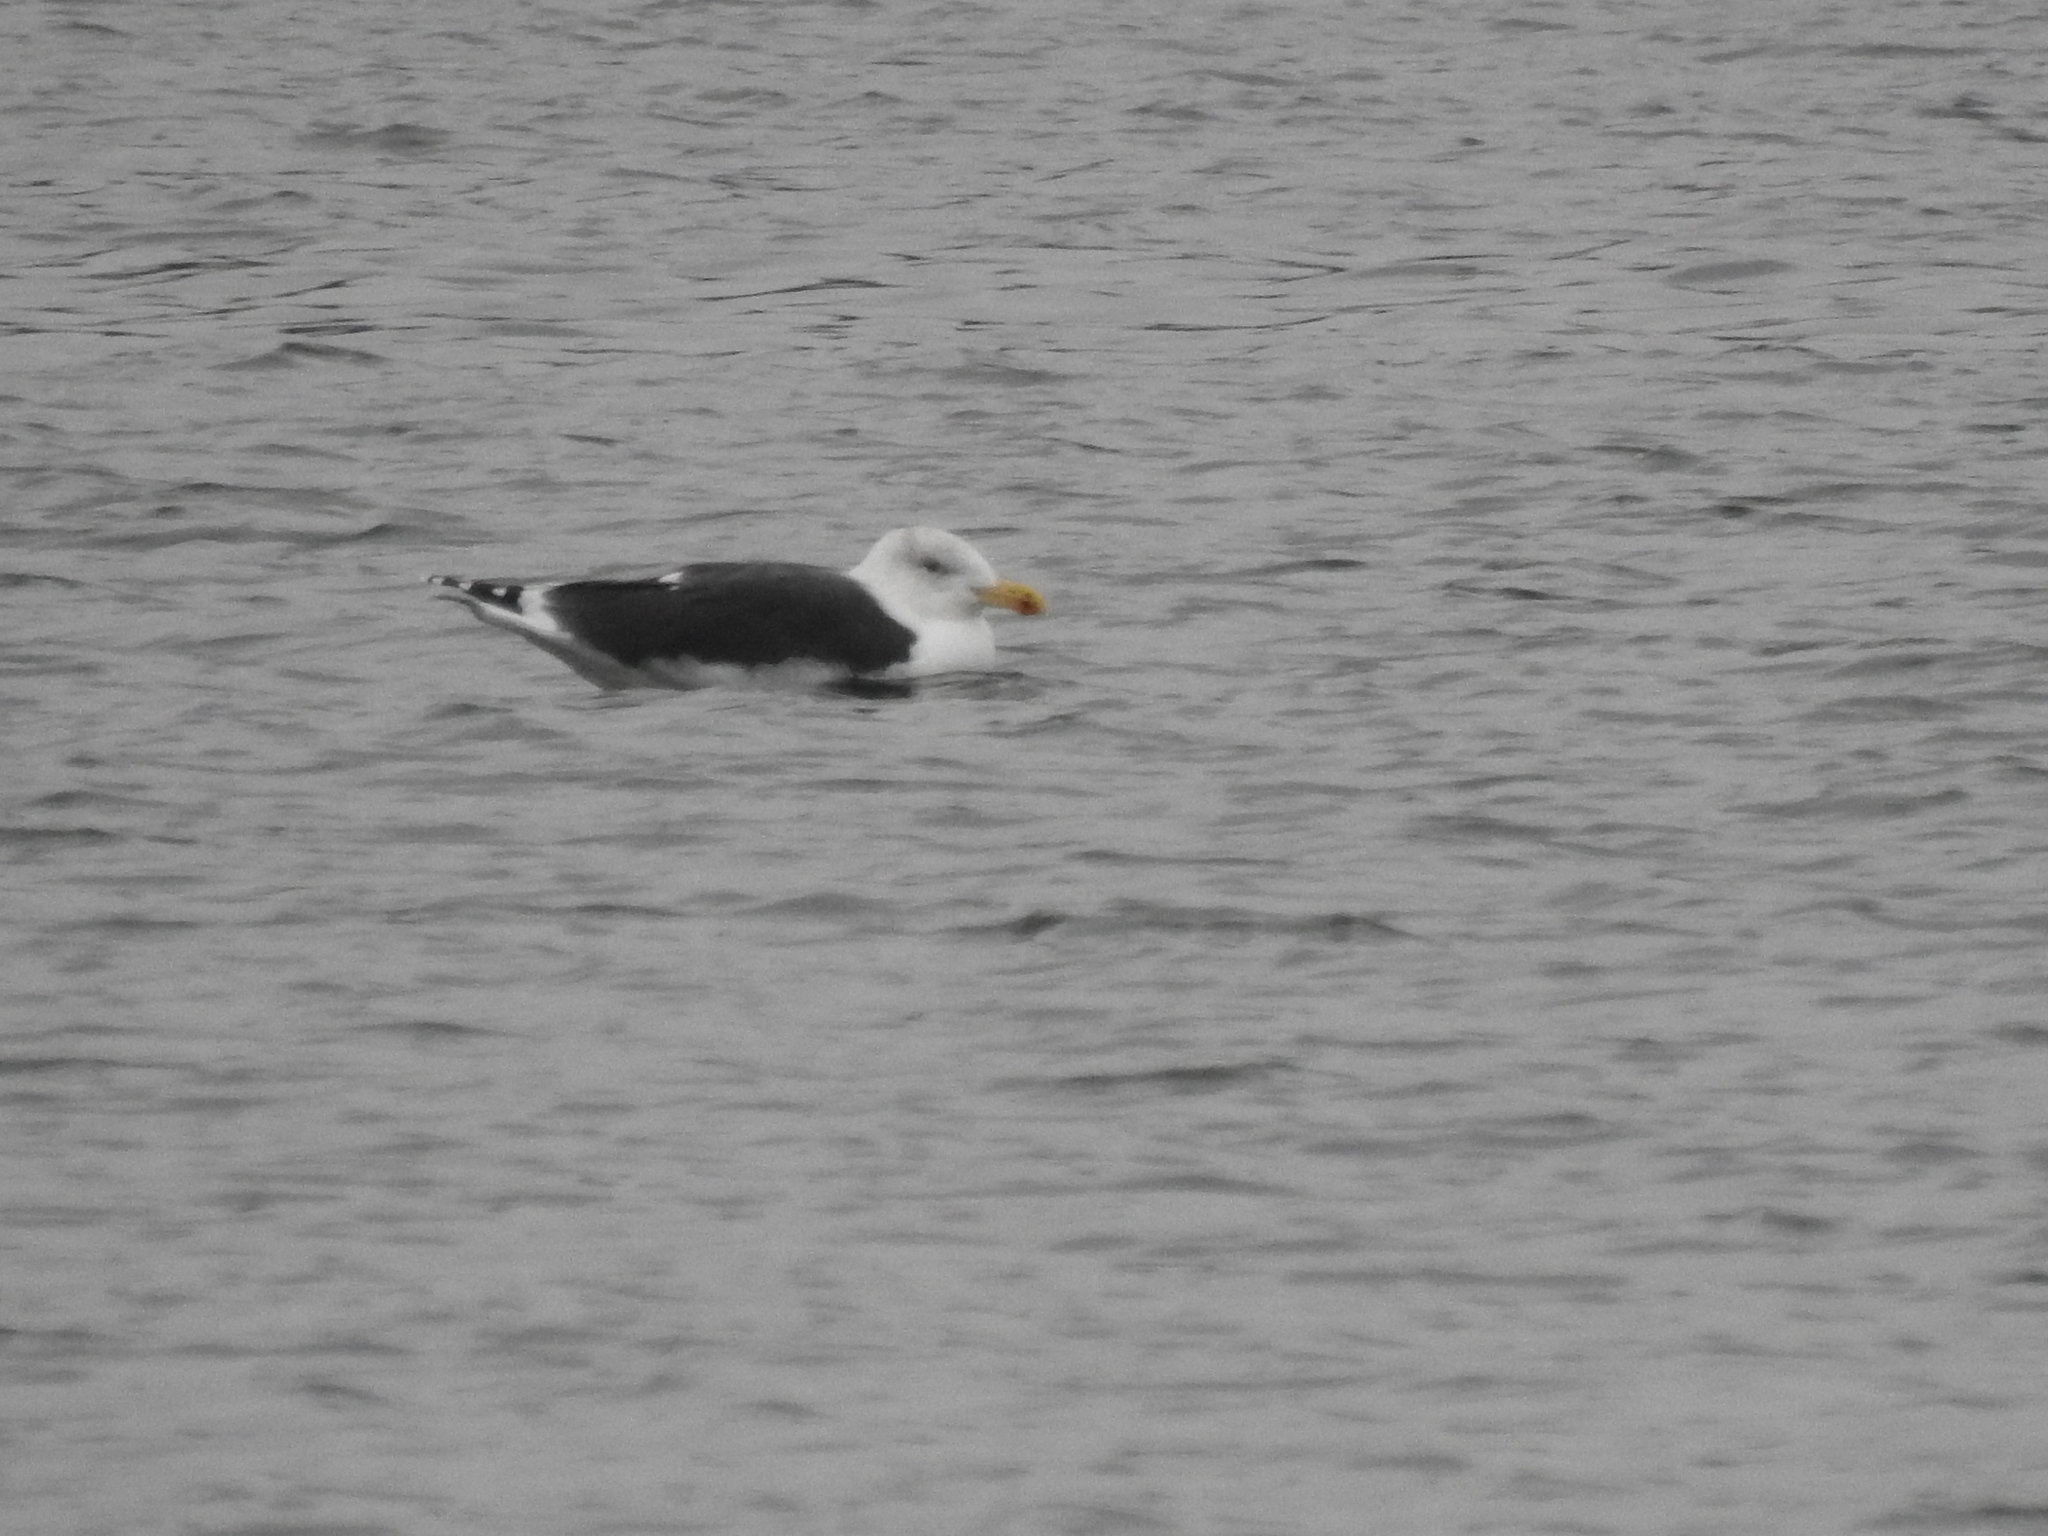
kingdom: Animalia
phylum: Chordata
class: Aves
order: Charadriiformes
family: Laridae
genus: Larus
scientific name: Larus marinus
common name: Great black-backed gull
